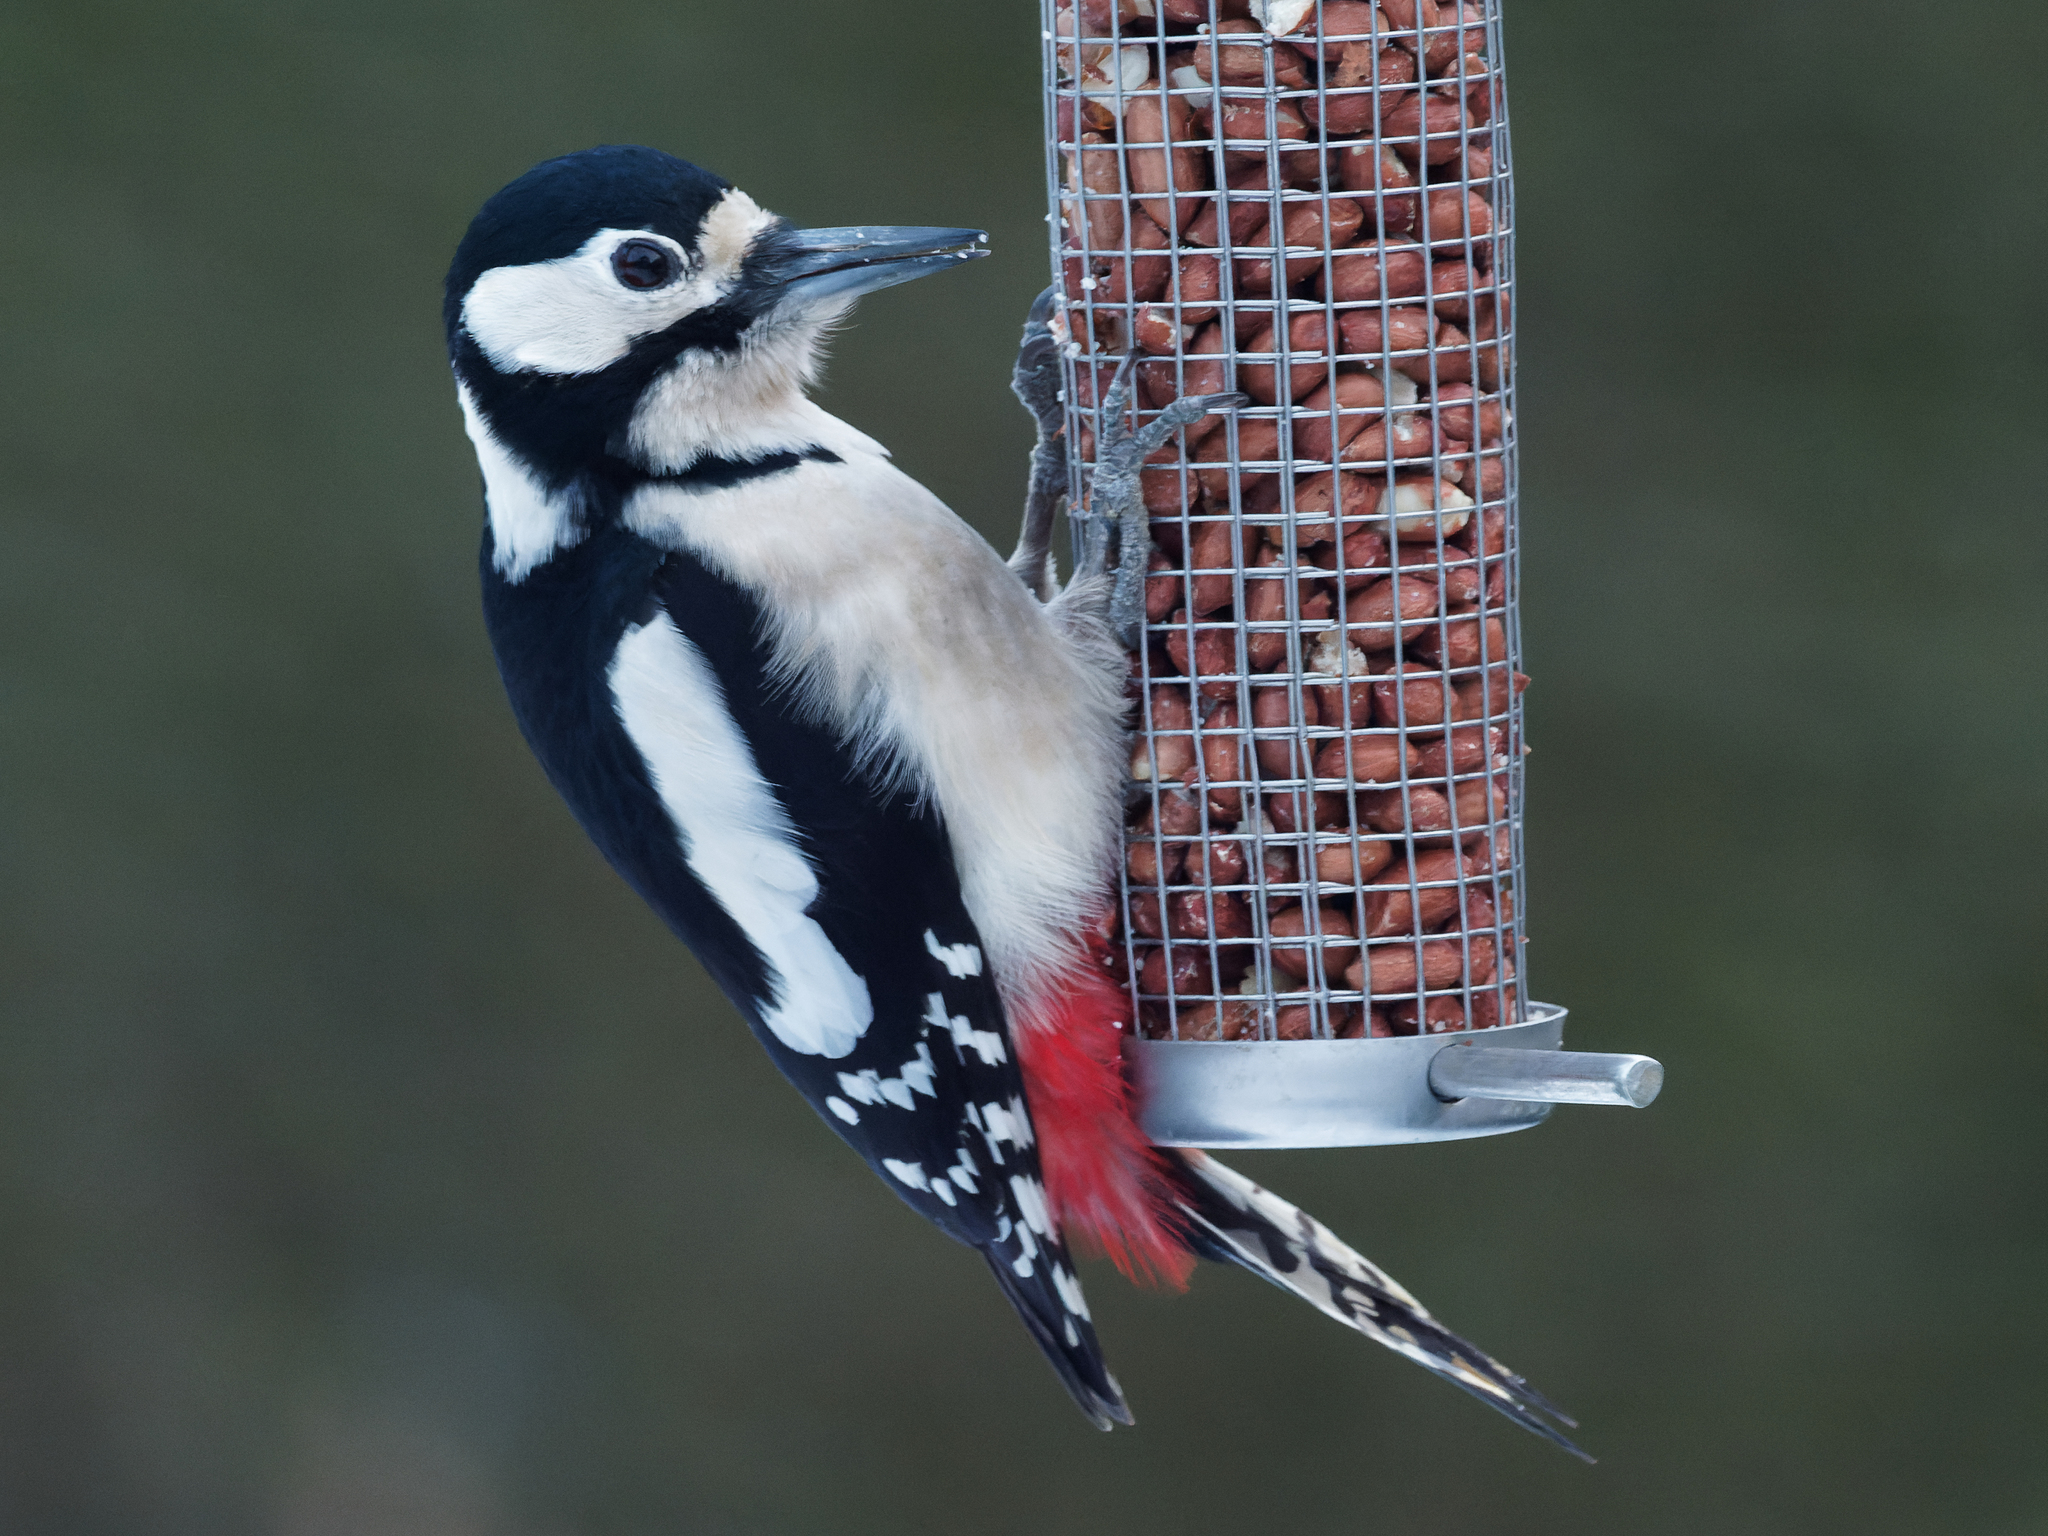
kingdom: Animalia
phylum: Chordata
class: Aves
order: Piciformes
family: Picidae
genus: Dendrocopos
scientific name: Dendrocopos major
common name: Great spotted woodpecker
